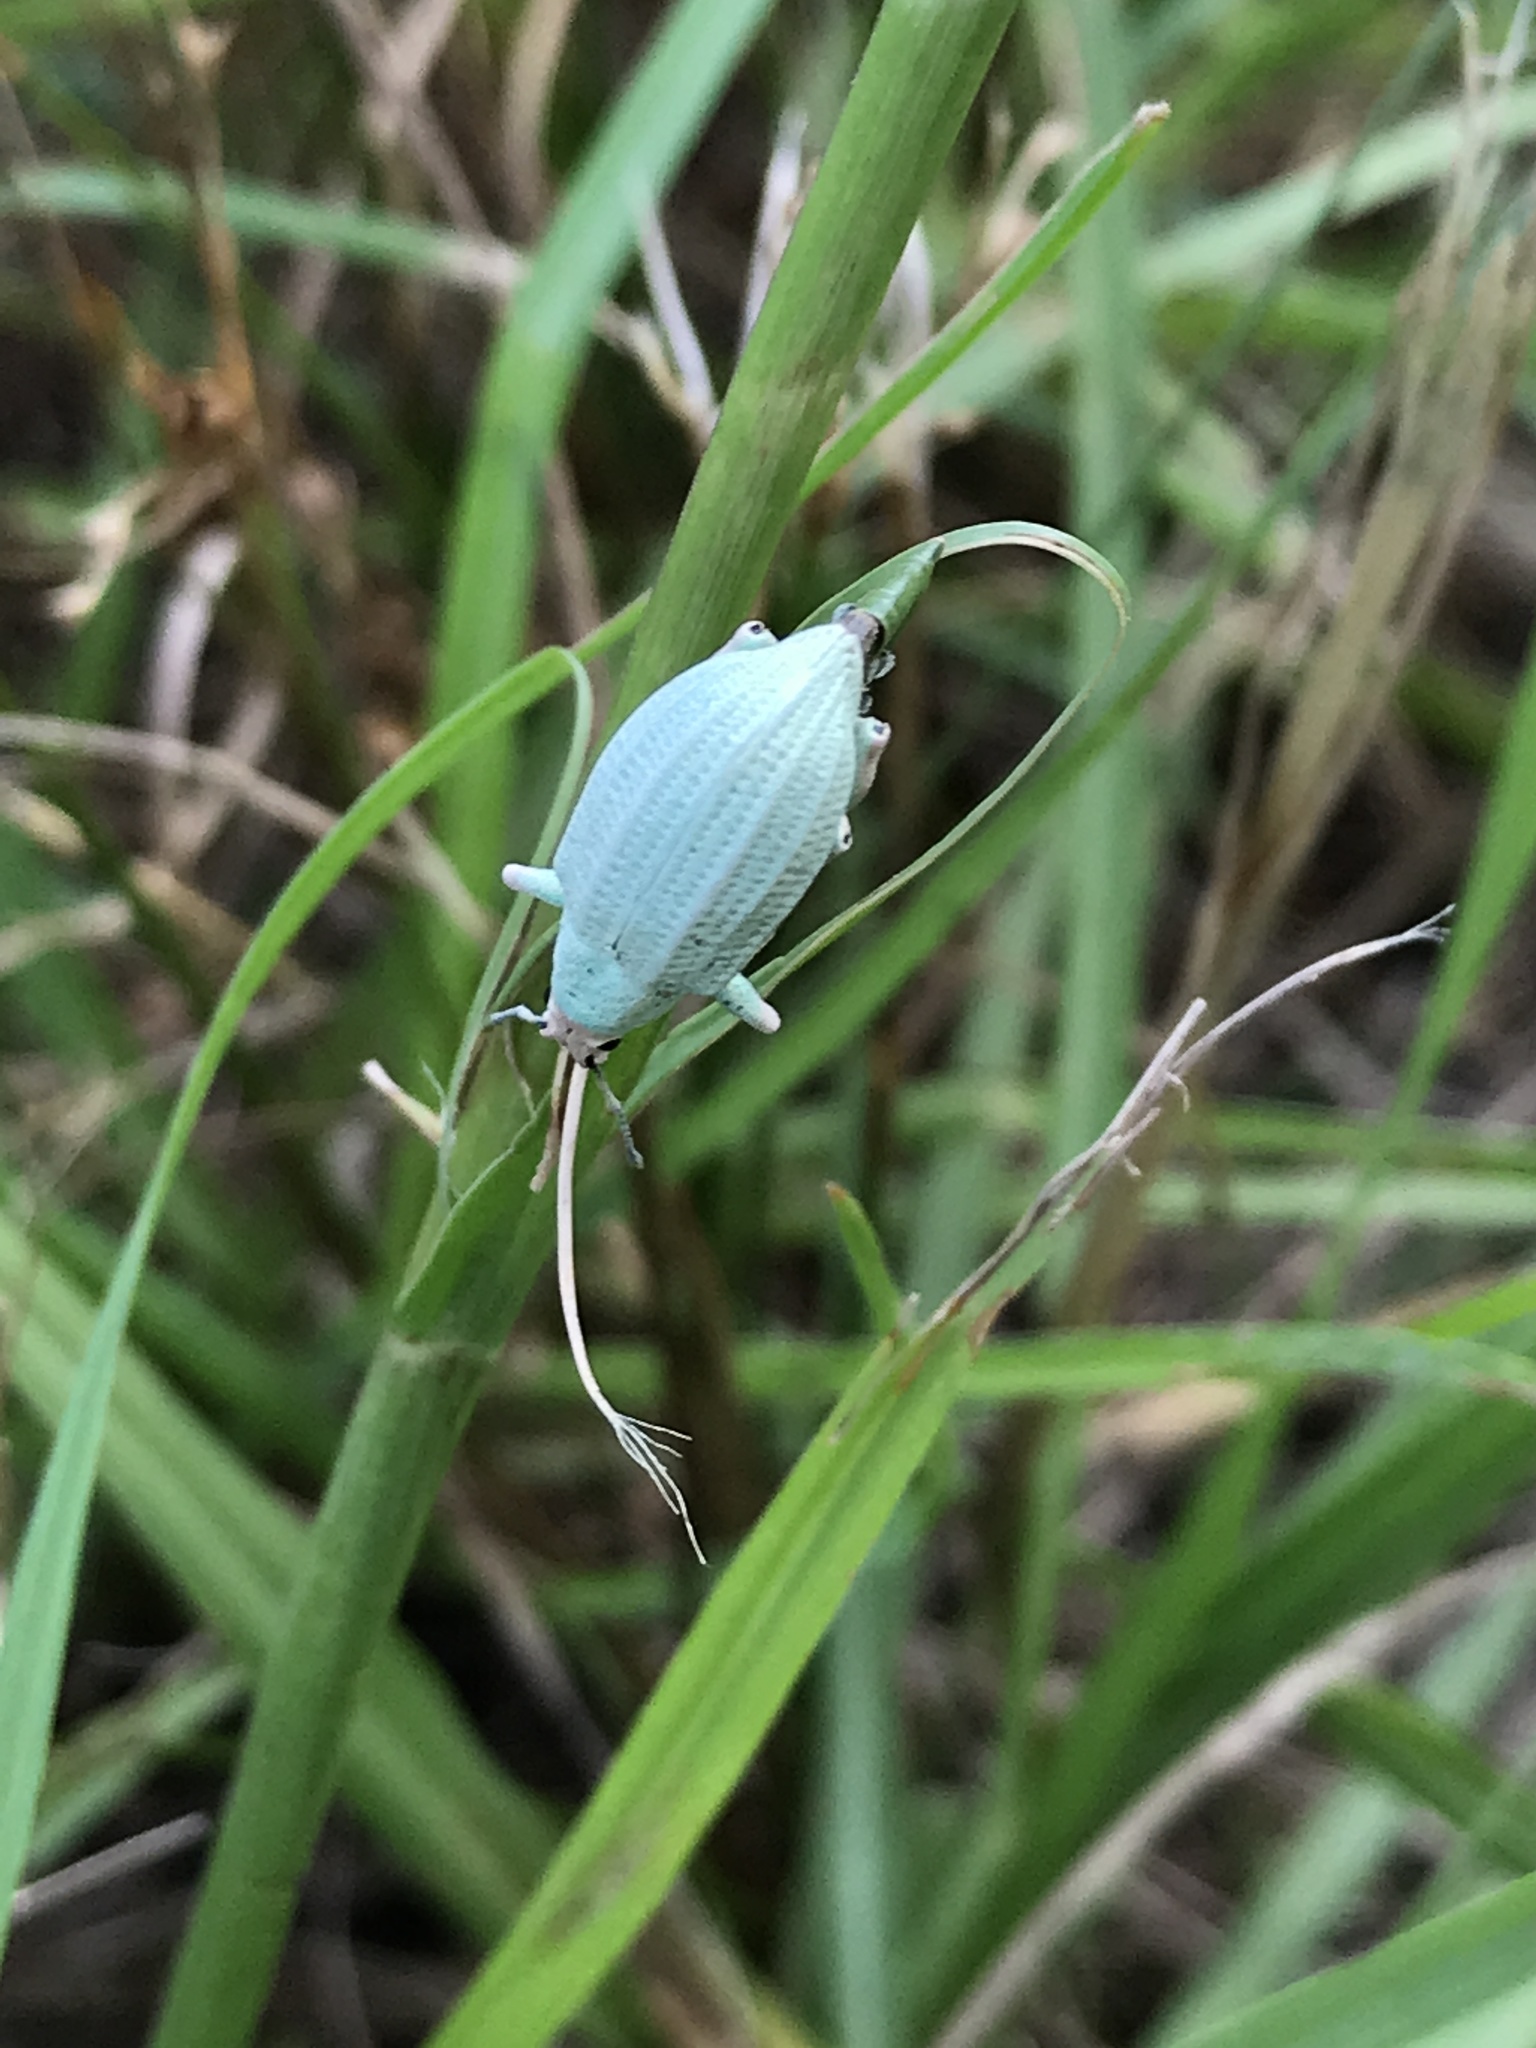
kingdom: Animalia
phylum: Arthropoda
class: Insecta
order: Coleoptera
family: Curculionidae
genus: Compsus
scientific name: Compsus auricephalus
